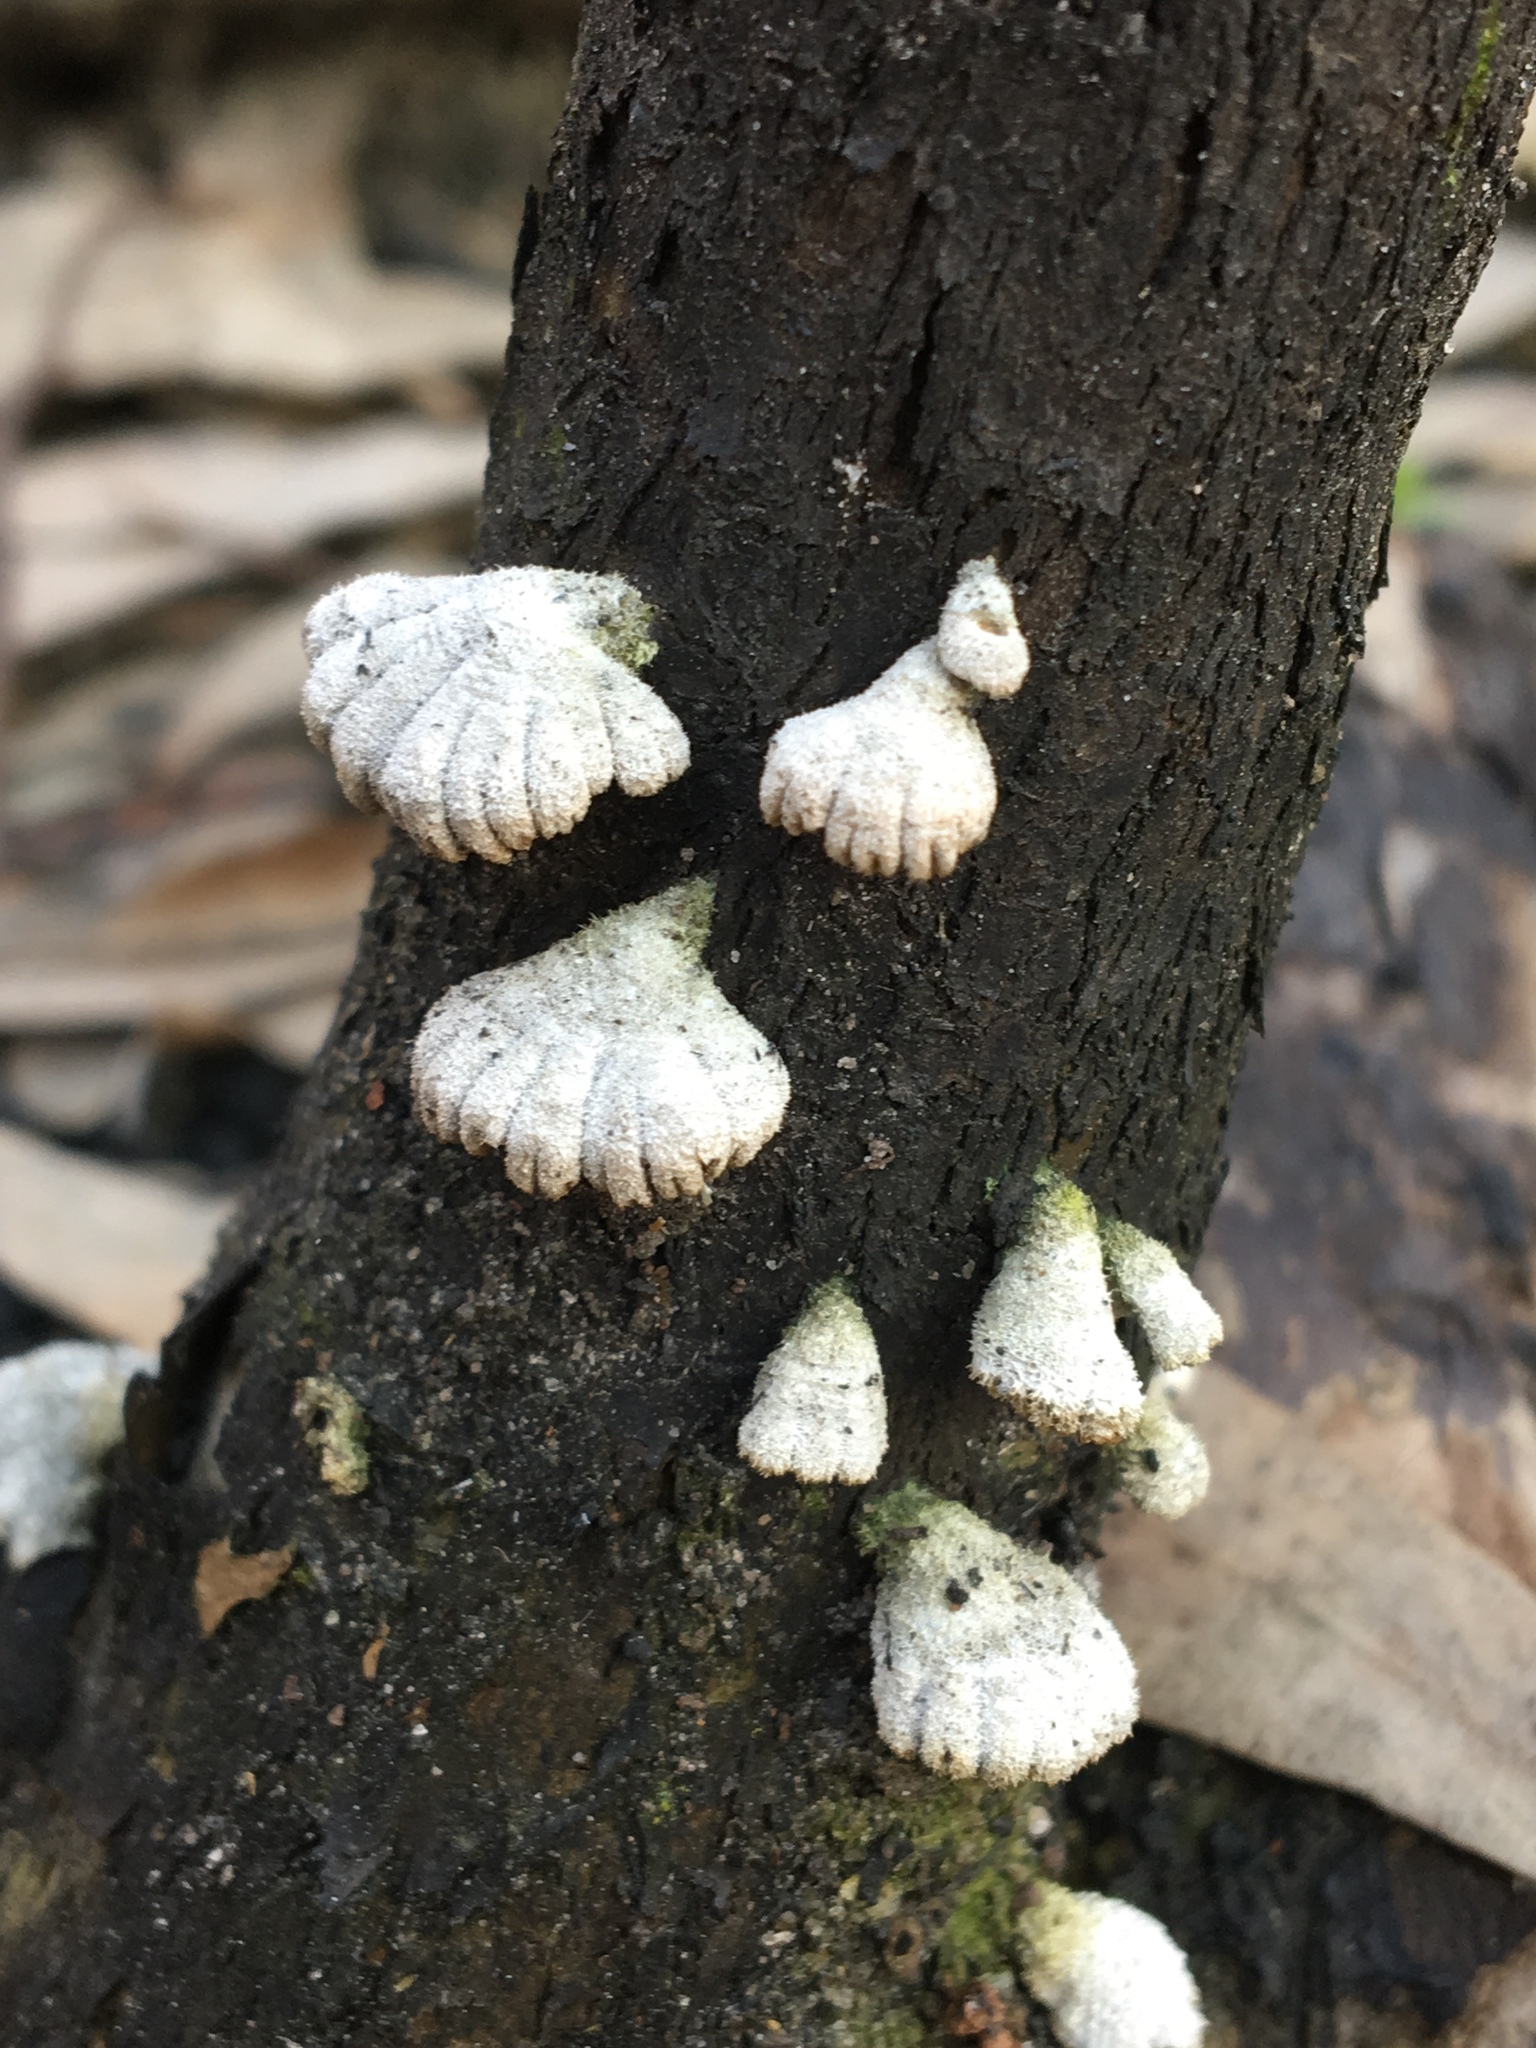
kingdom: Fungi
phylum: Basidiomycota
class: Agaricomycetes
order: Agaricales
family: Schizophyllaceae
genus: Schizophyllum
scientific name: Schizophyllum commune
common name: Common porecrust
